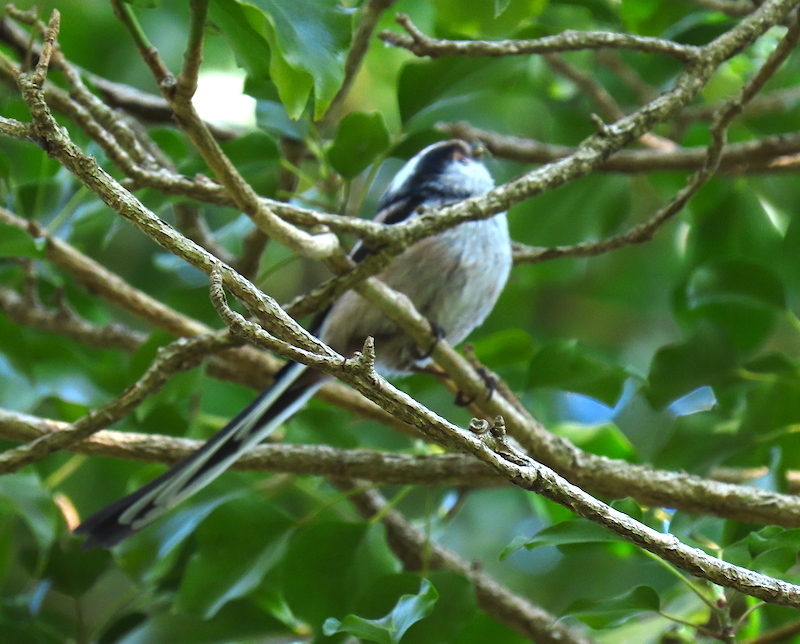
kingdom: Animalia
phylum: Chordata
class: Aves
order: Passeriformes
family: Aegithalidae
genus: Aegithalos
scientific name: Aegithalos caudatus
